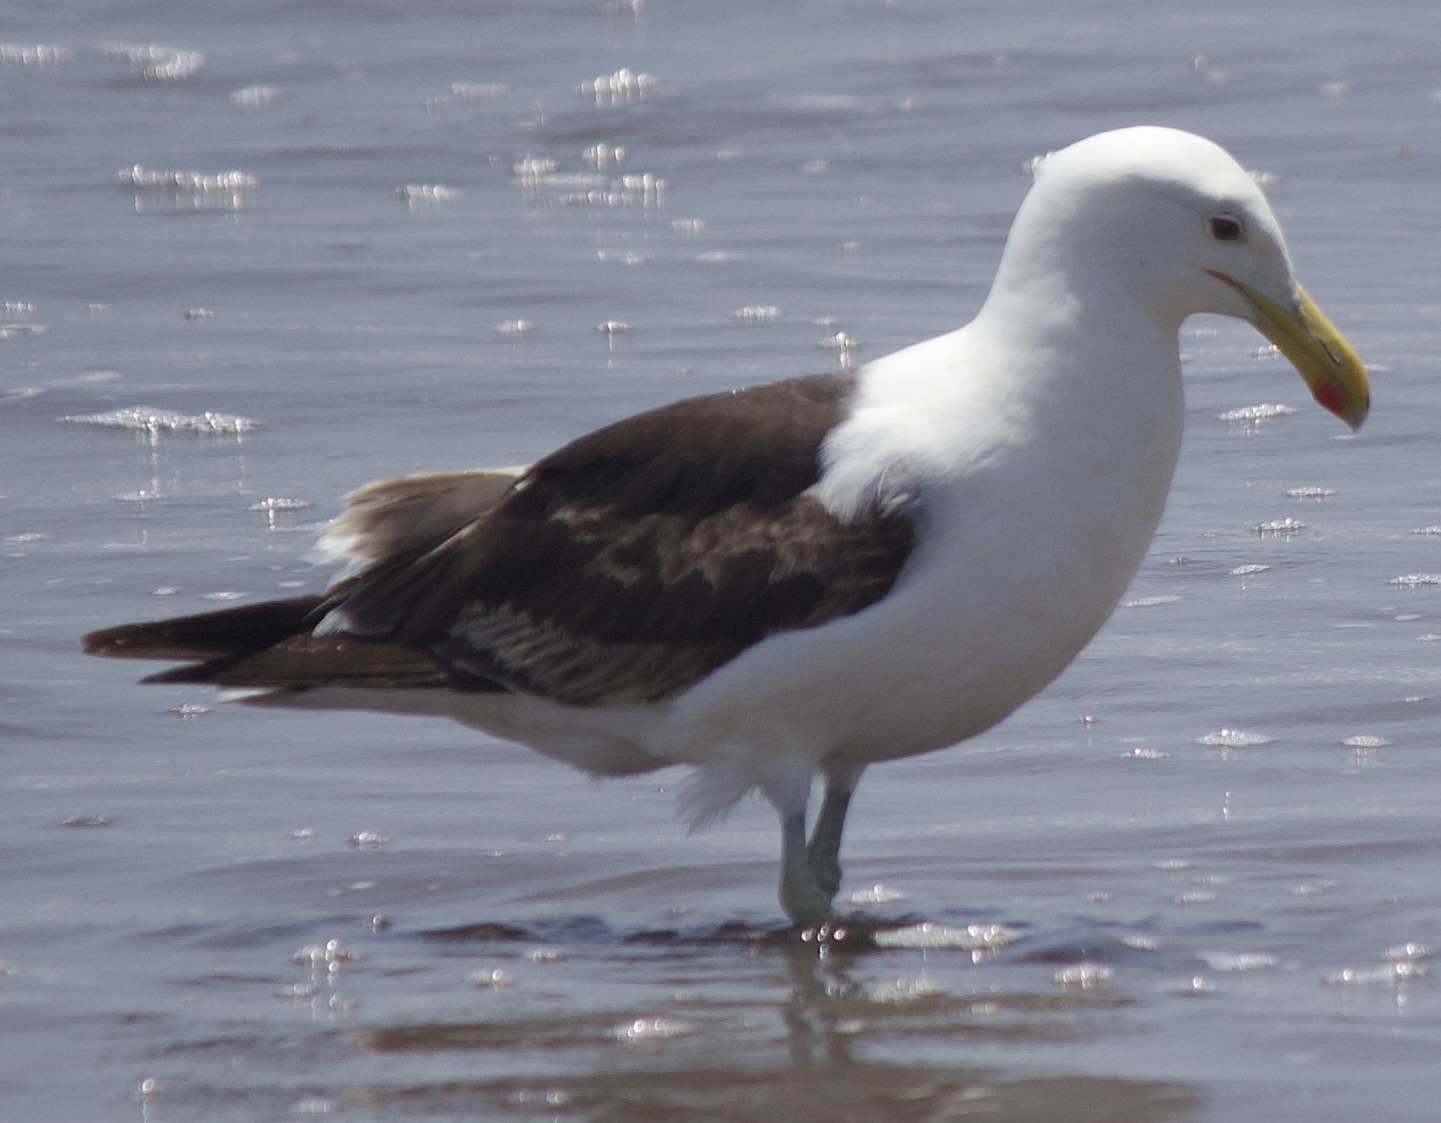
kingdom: Animalia
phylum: Chordata
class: Aves
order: Charadriiformes
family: Laridae
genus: Larus
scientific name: Larus dominicanus
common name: Kelp gull
